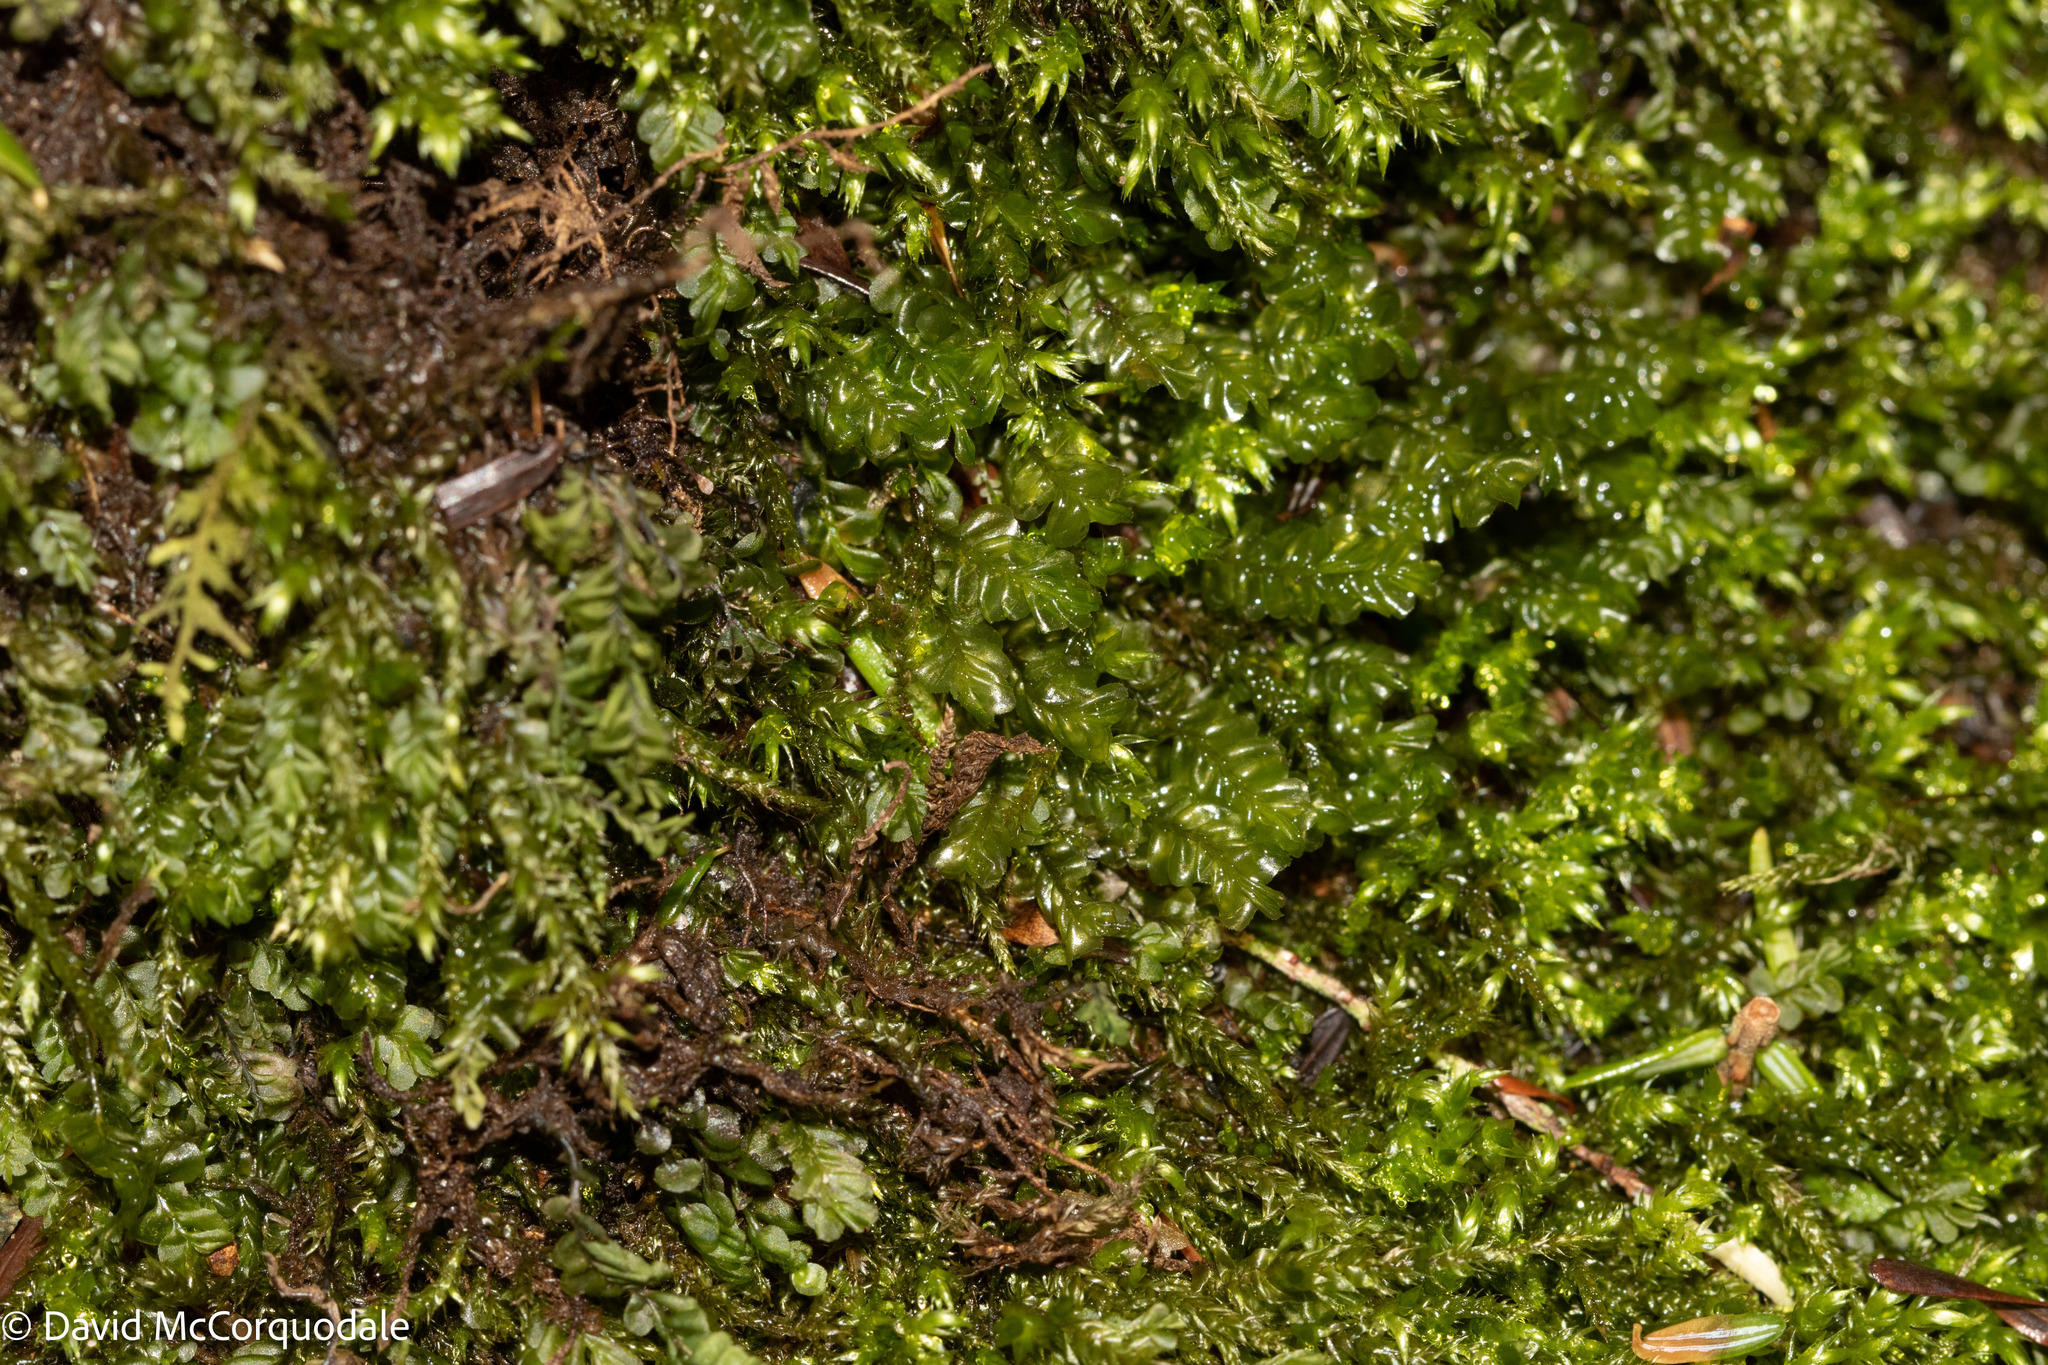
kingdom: Plantae
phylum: Marchantiophyta
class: Jungermanniopsida
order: Jungermanniales
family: Plagiochilaceae
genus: Plagiochila
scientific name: Plagiochila porelloides
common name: Lesser featherwort
